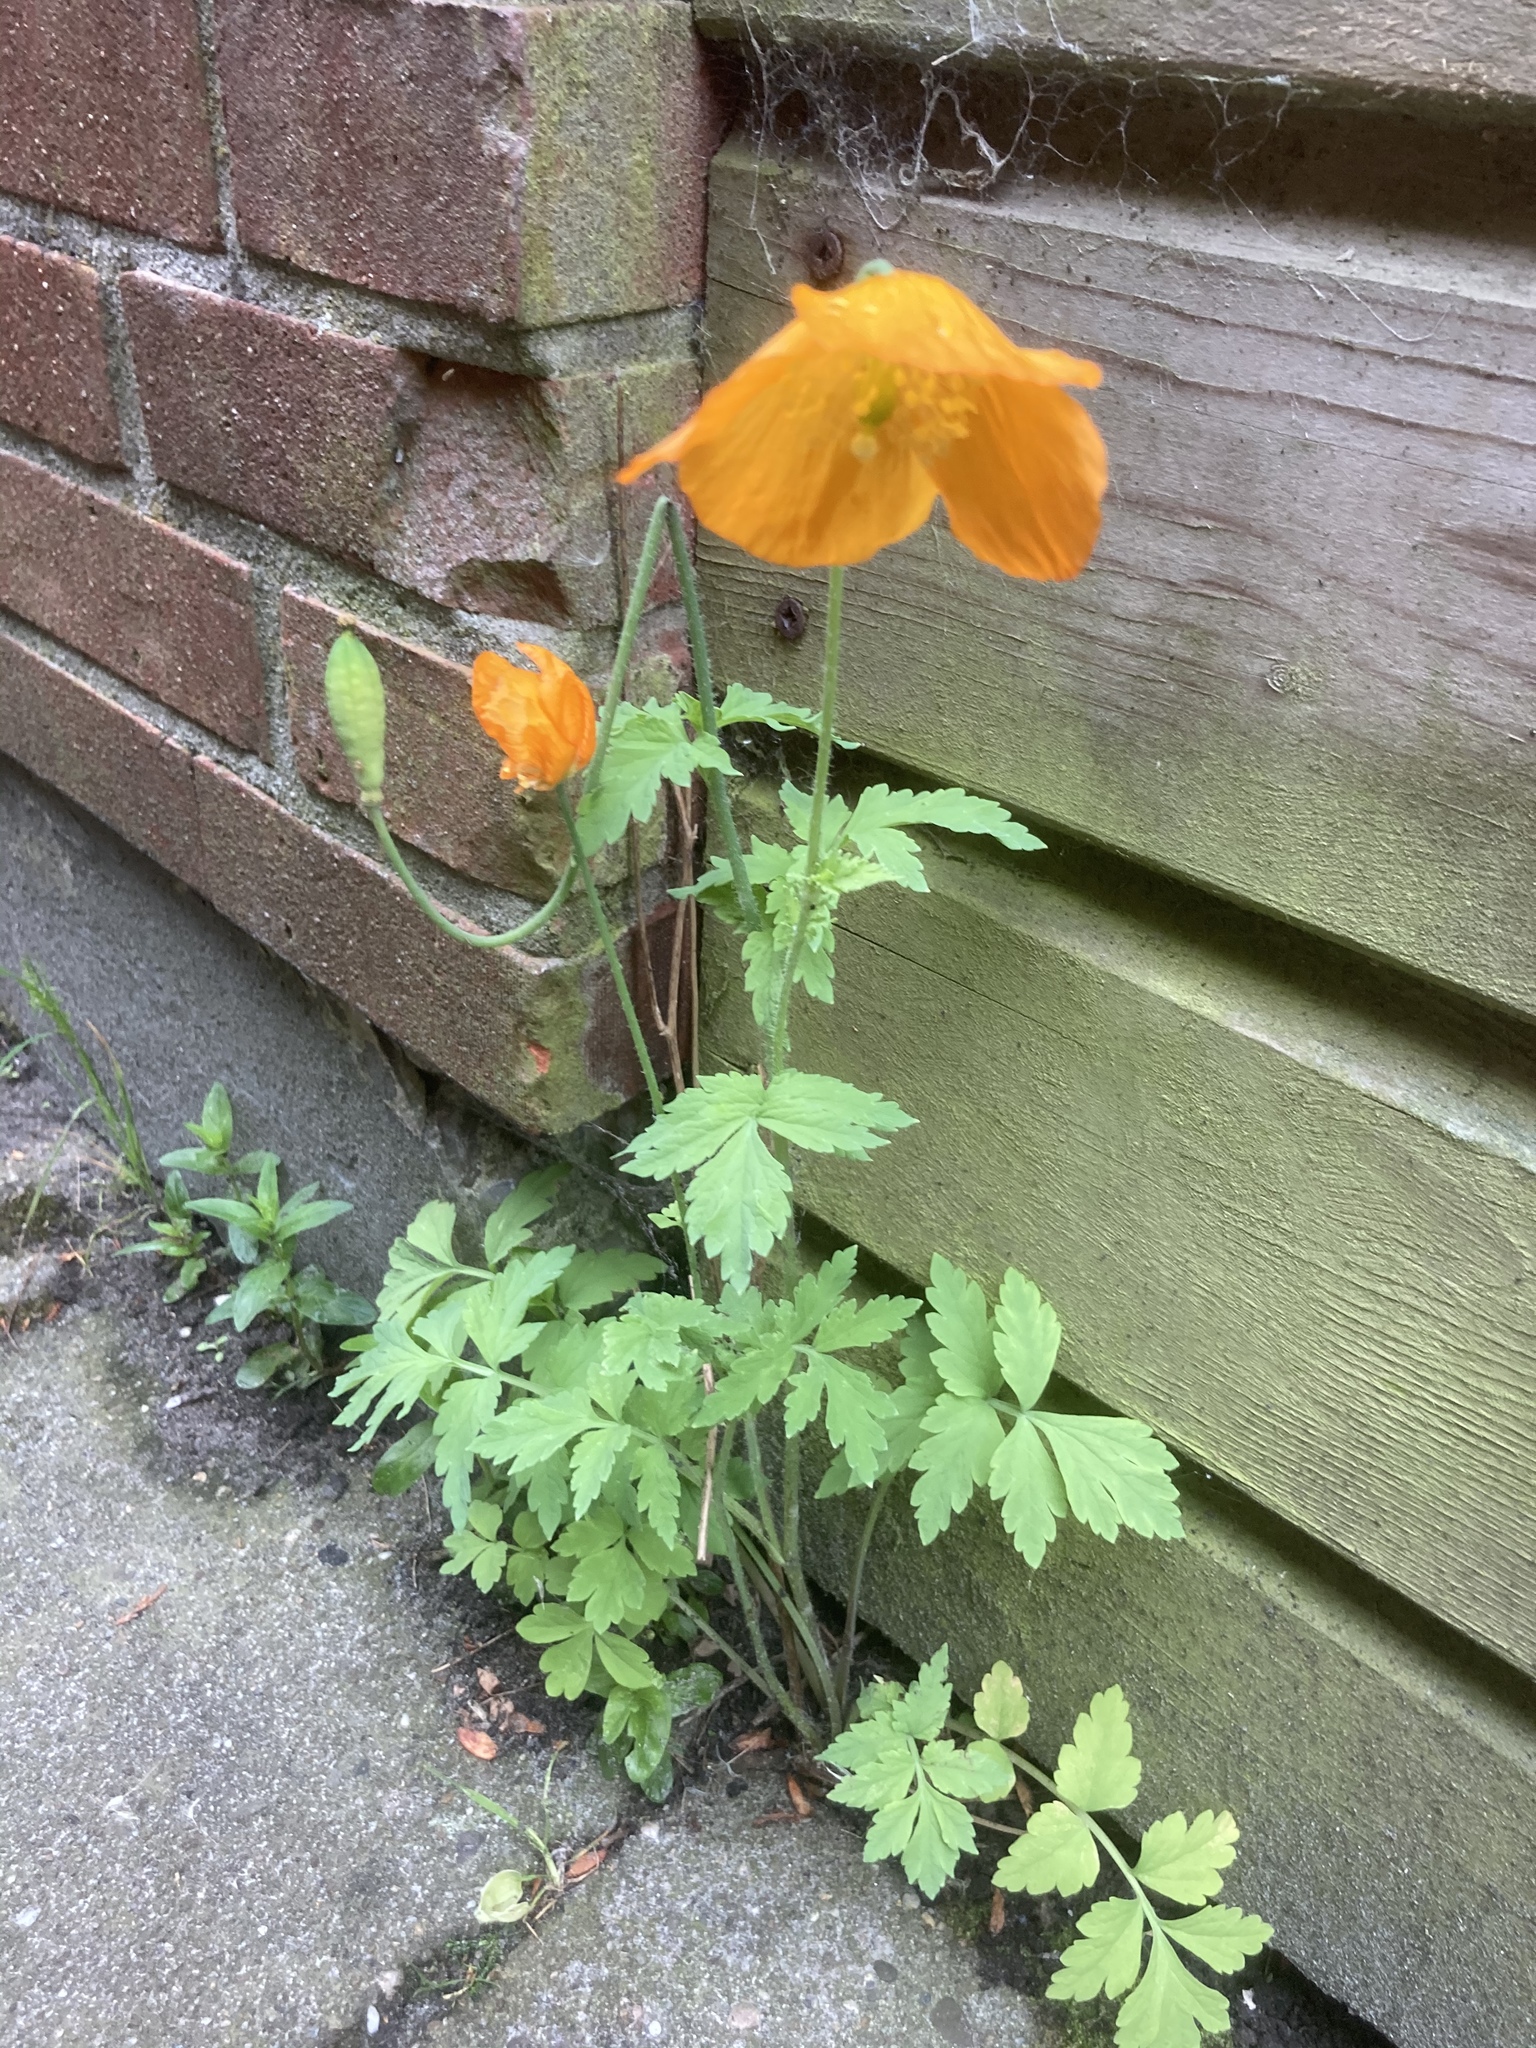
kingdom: Plantae
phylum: Tracheophyta
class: Magnoliopsida
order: Ranunculales
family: Papaveraceae
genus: Papaver
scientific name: Papaver cambricum
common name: Poppy
